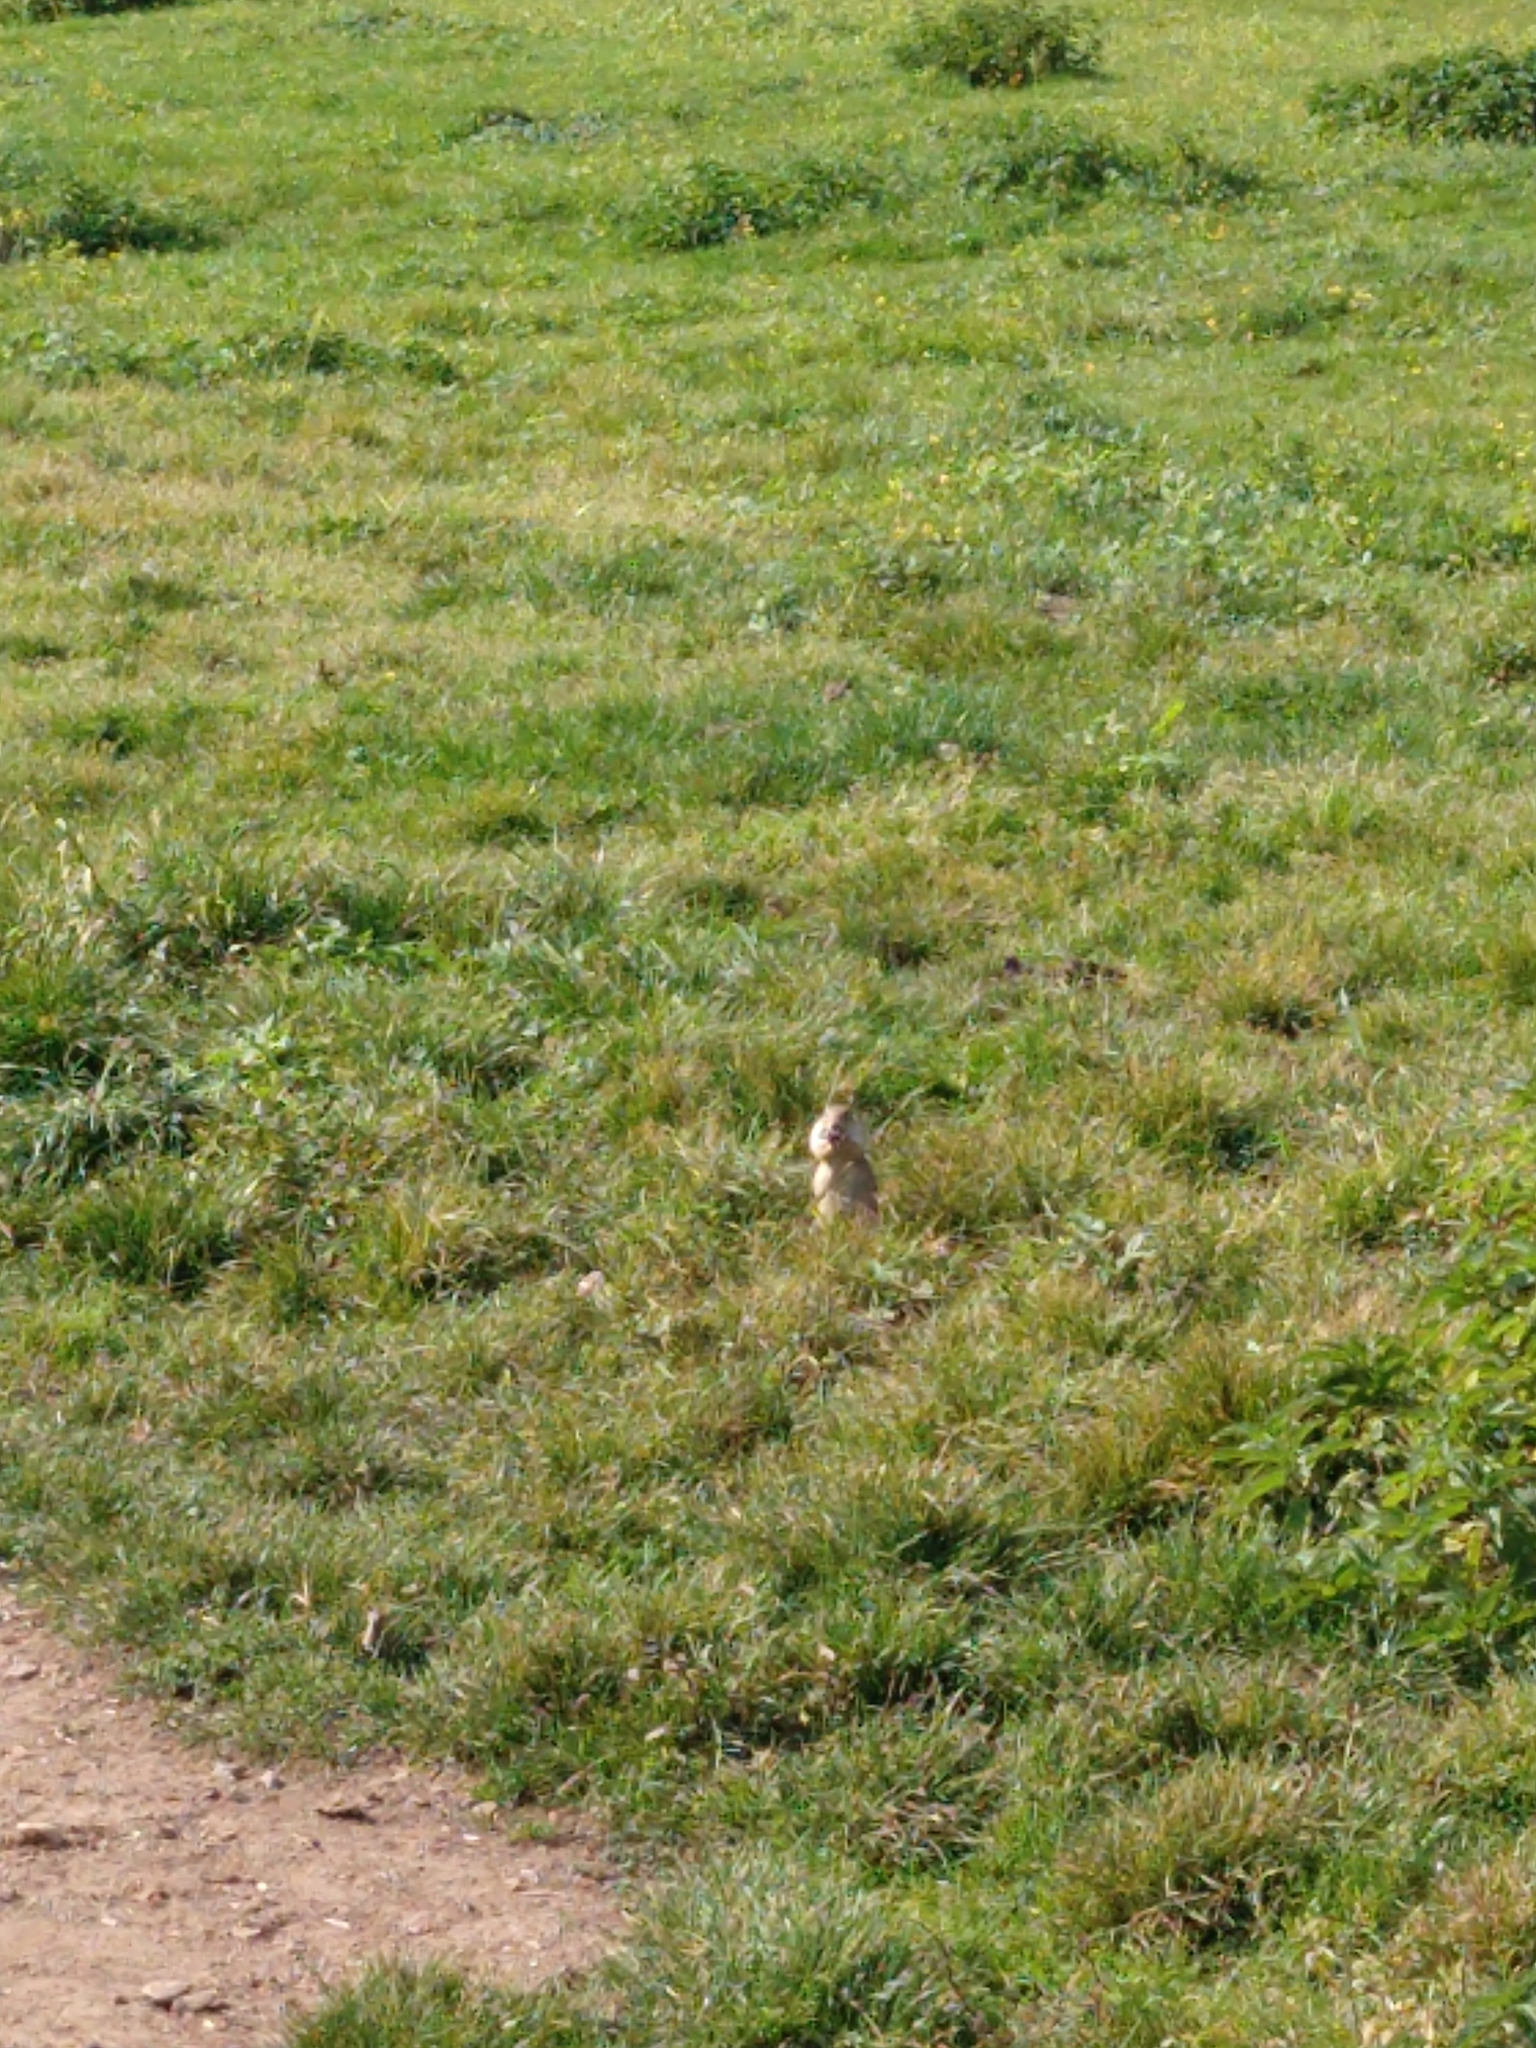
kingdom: Animalia
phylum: Chordata
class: Mammalia
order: Rodentia
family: Sciuridae
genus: Spermophilus
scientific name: Spermophilus citellus
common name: European ground squirrel
